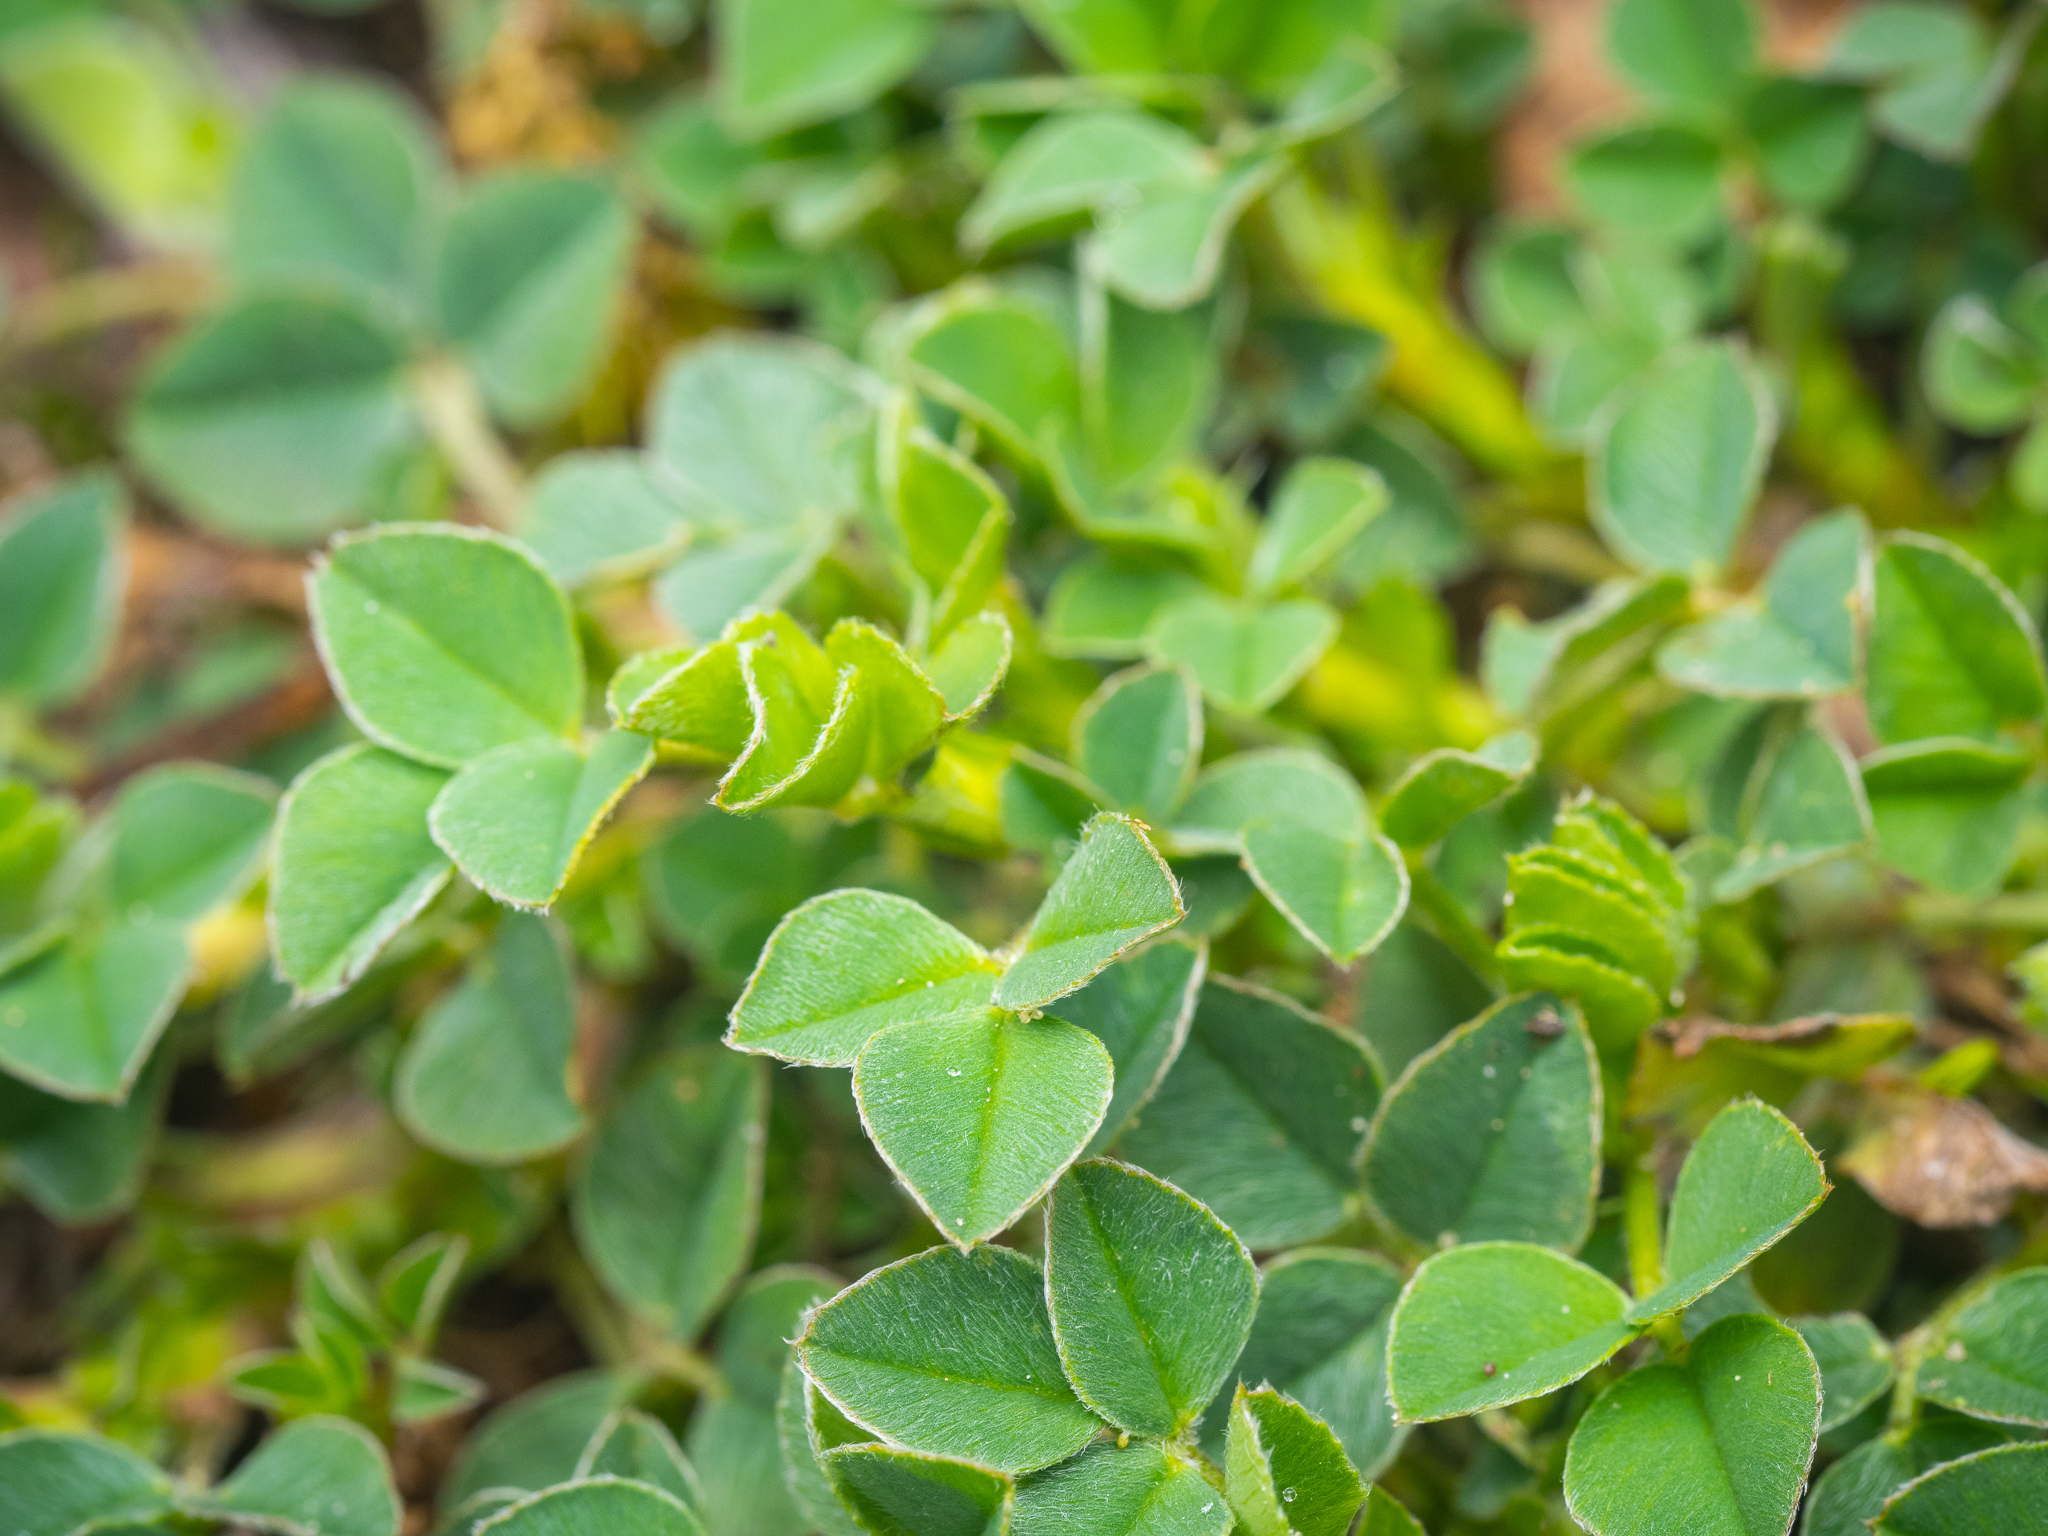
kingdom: Plantae
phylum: Tracheophyta
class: Magnoliopsida
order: Fabales
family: Fabaceae
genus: Medicago
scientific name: Medicago lupulina
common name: Black medick
